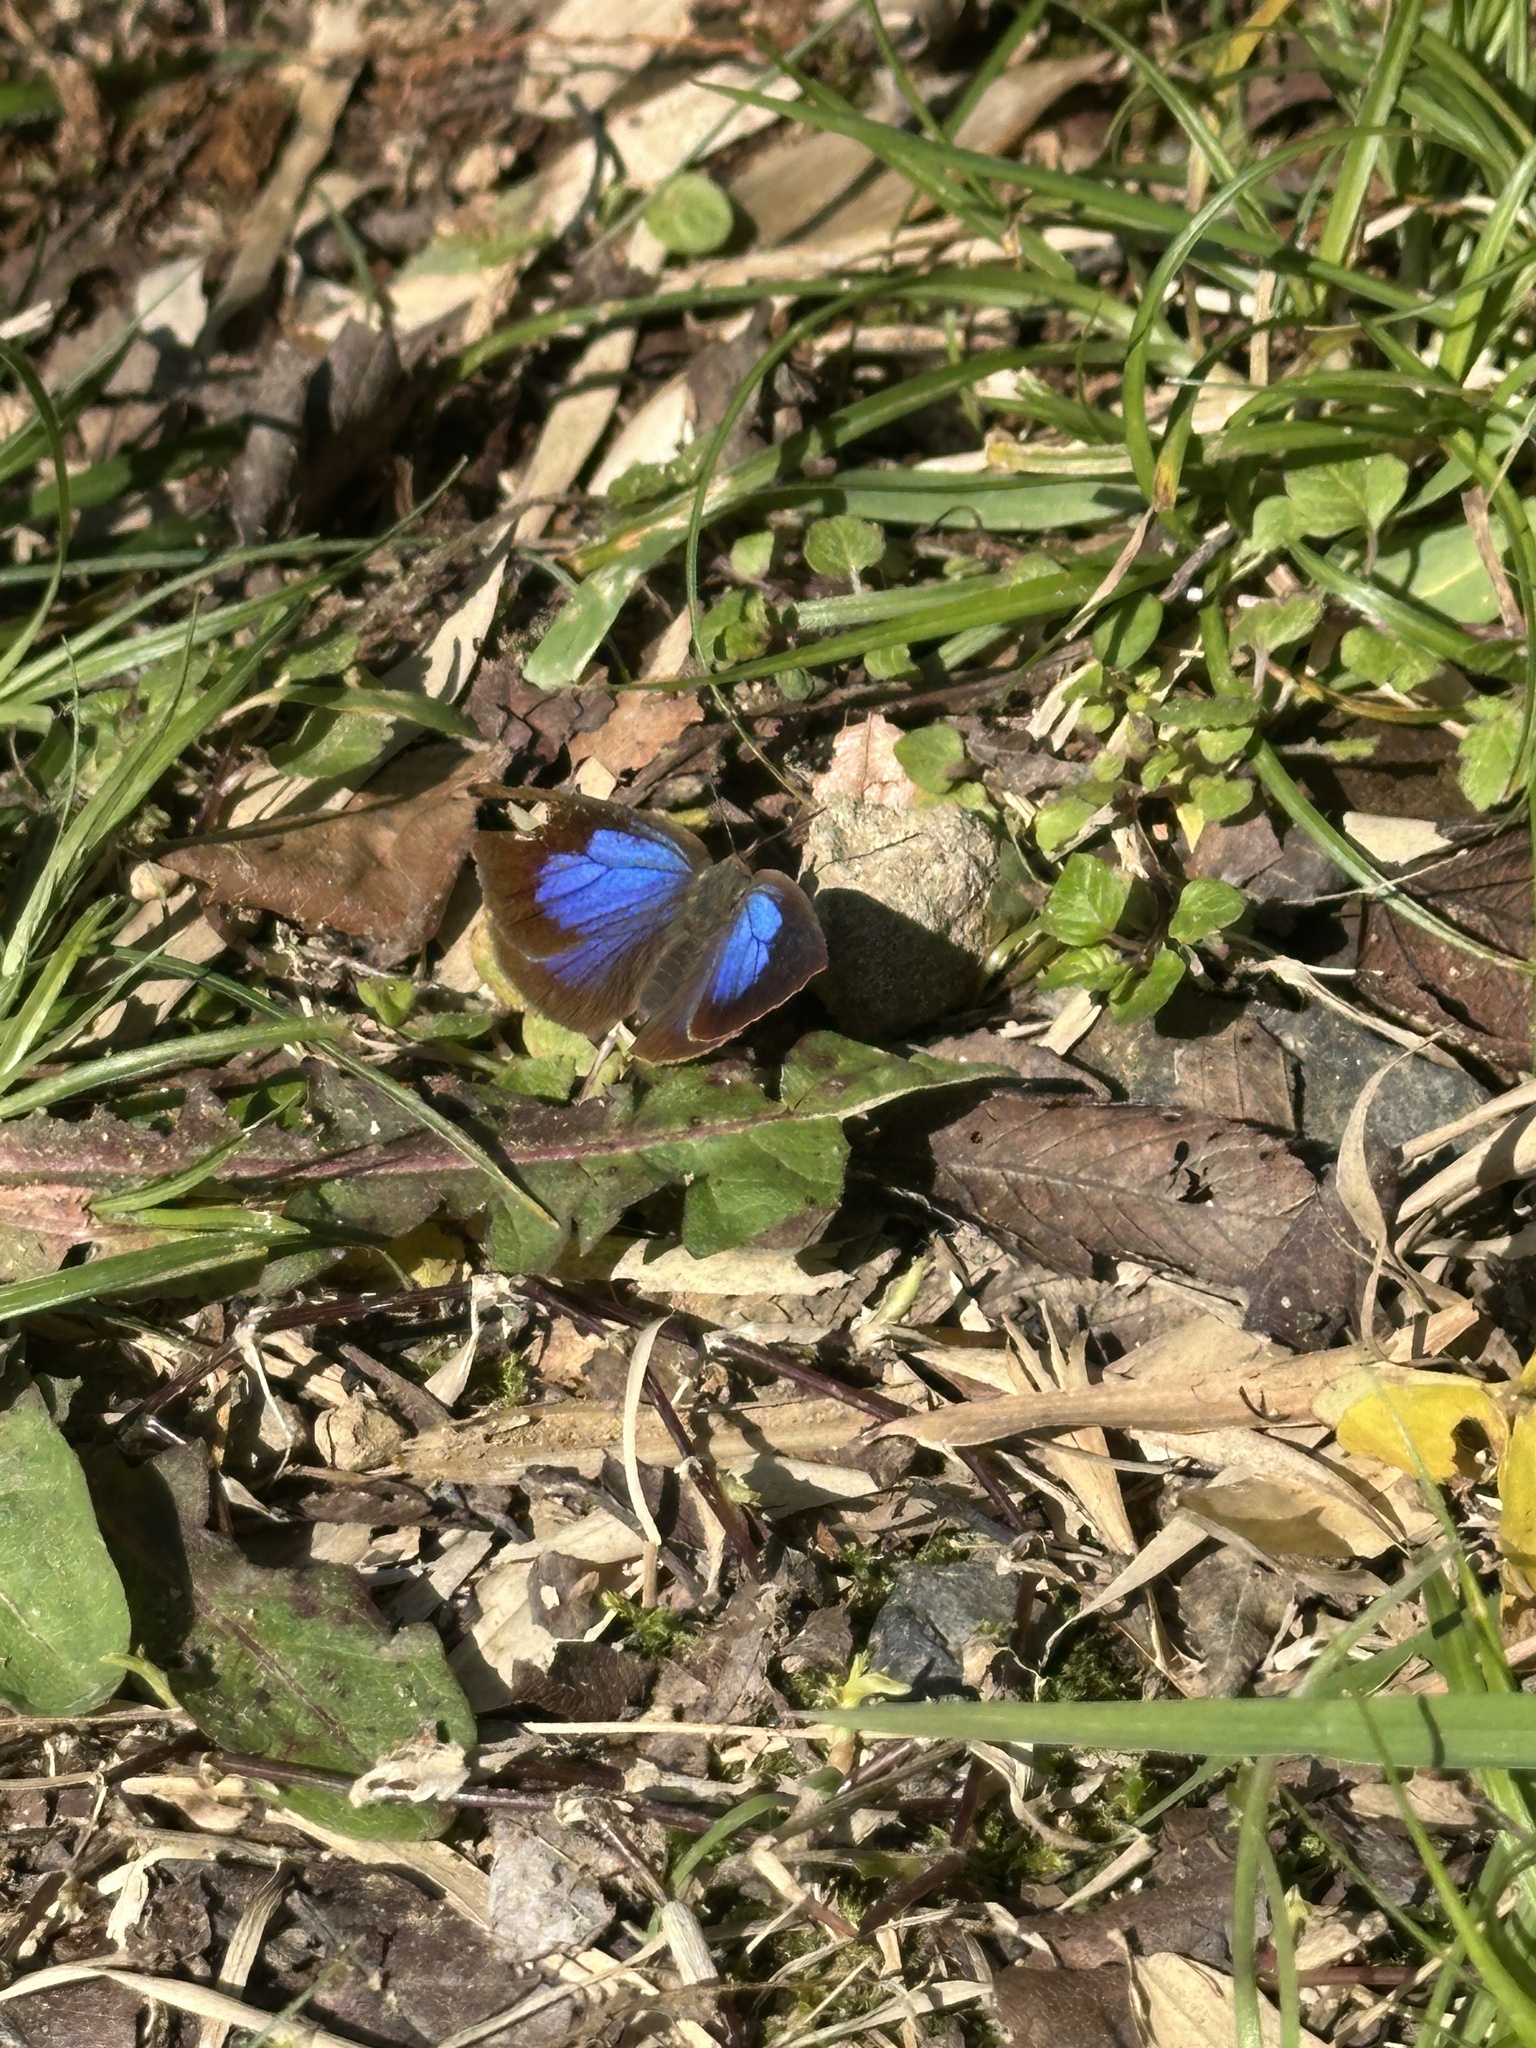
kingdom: Animalia
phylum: Arthropoda
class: Insecta
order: Lepidoptera
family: Lycaenidae
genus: Arhopala
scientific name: Arhopala japonica
